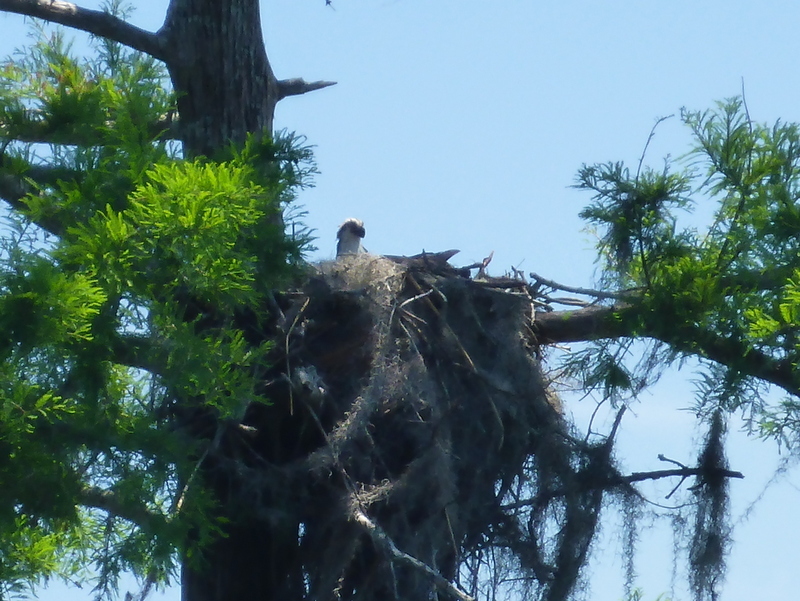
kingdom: Animalia
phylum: Chordata
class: Aves
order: Accipitriformes
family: Pandionidae
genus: Pandion
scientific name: Pandion haliaetus
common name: Osprey
